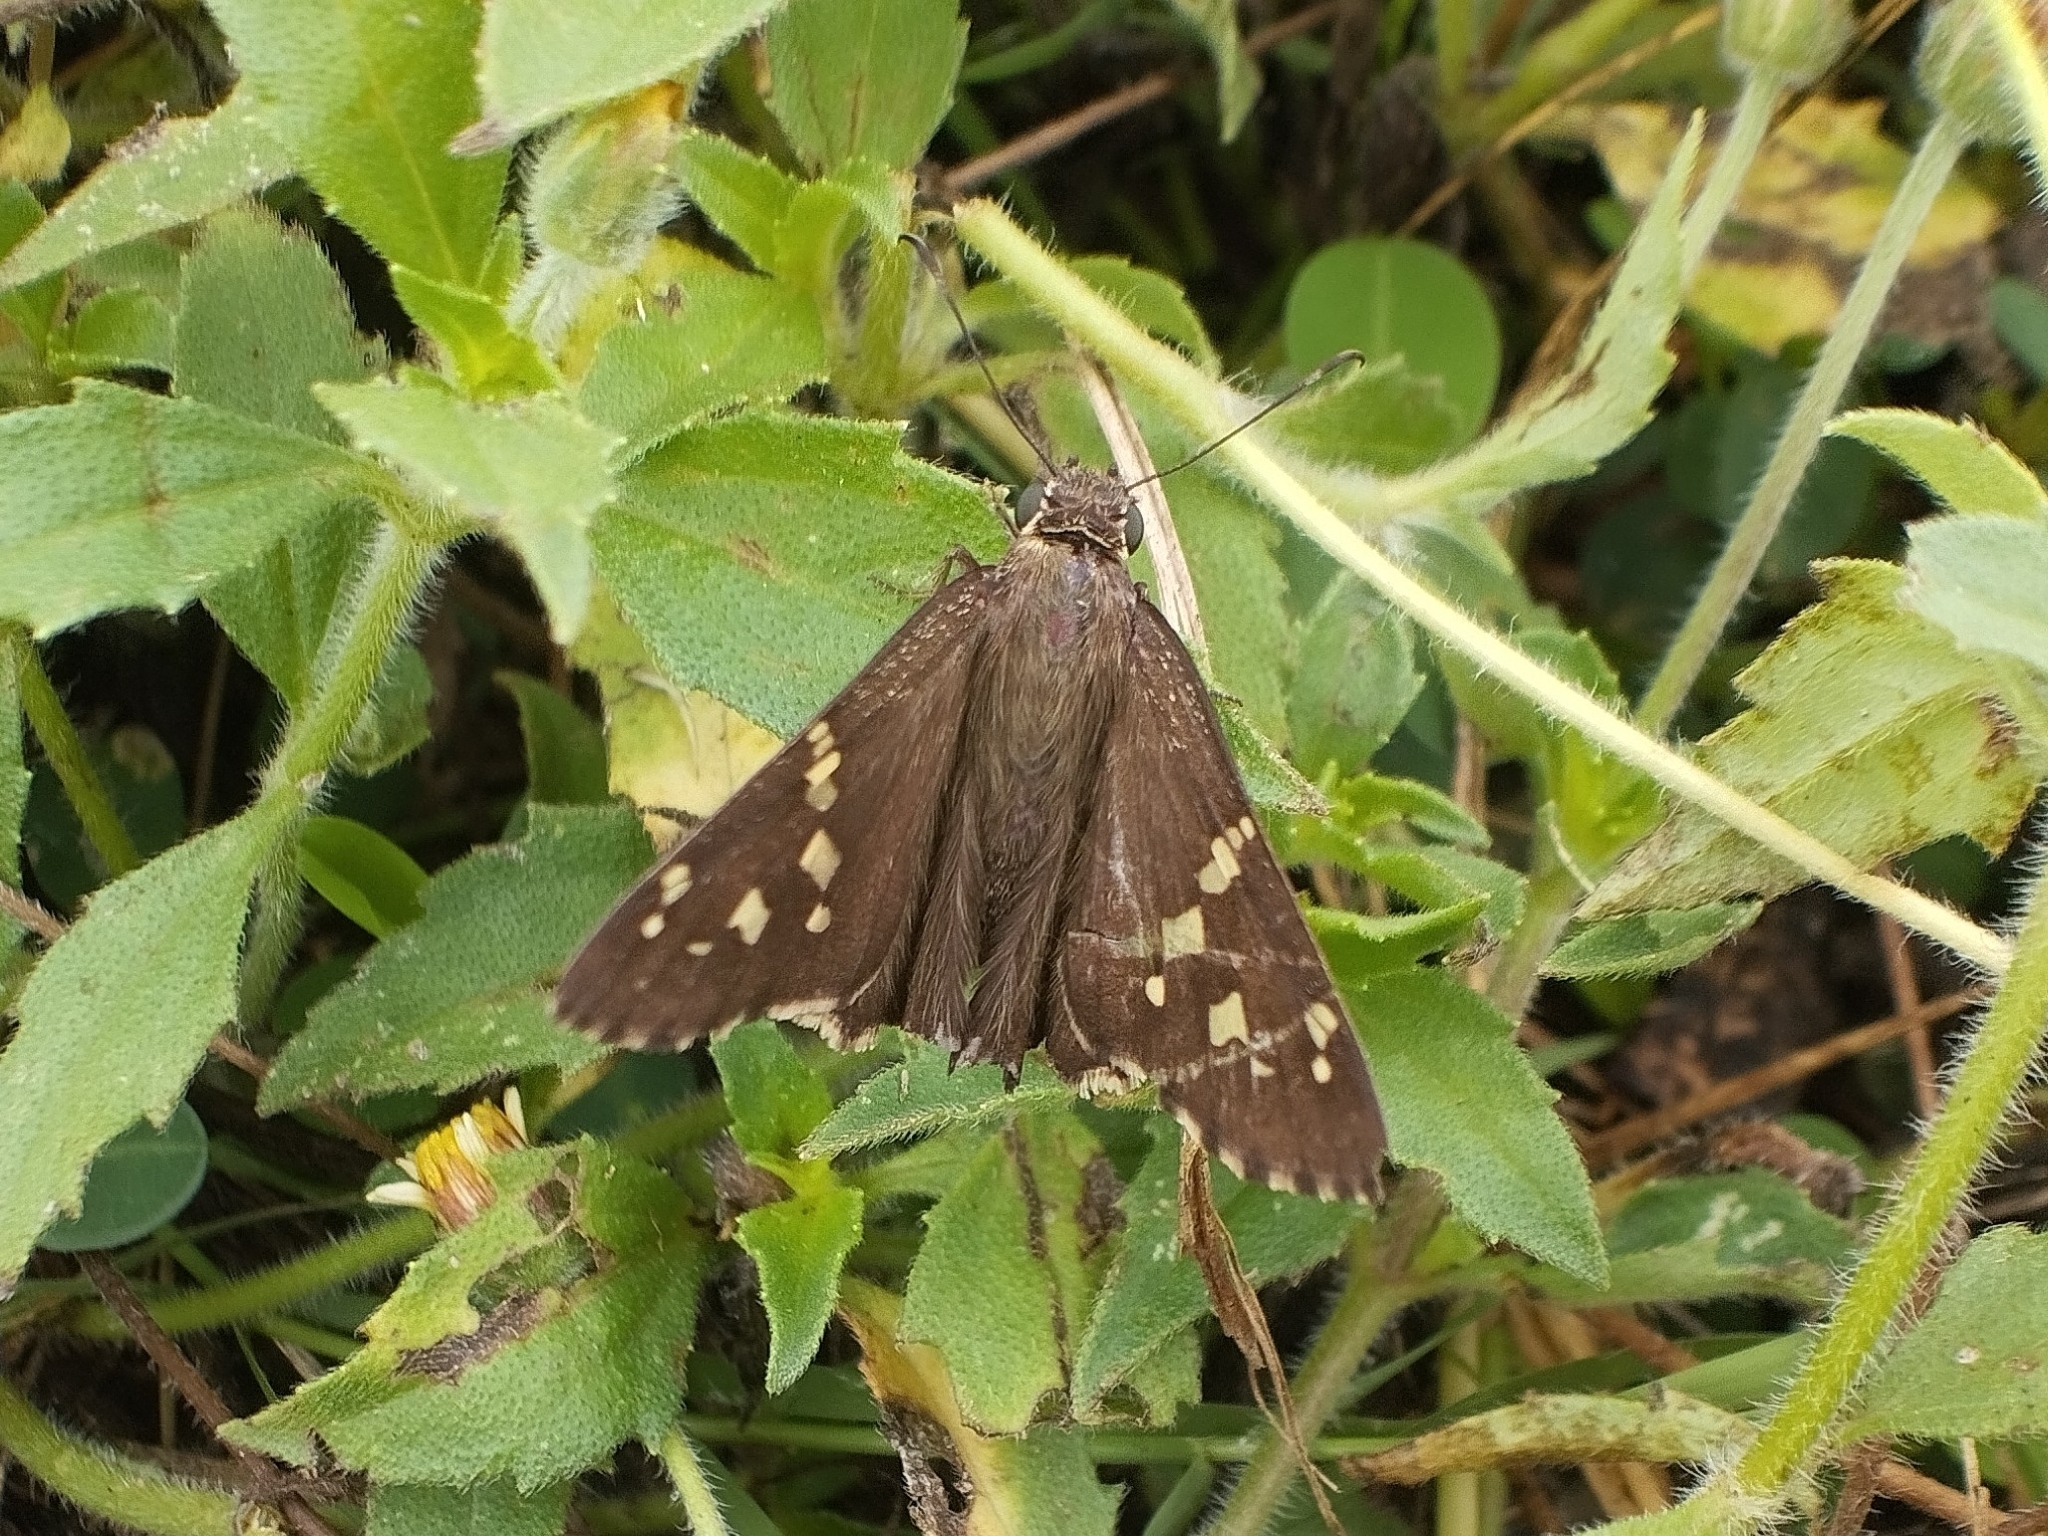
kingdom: Animalia
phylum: Arthropoda
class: Insecta
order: Lepidoptera
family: Hesperiidae
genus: Thorybes
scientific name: Thorybes
